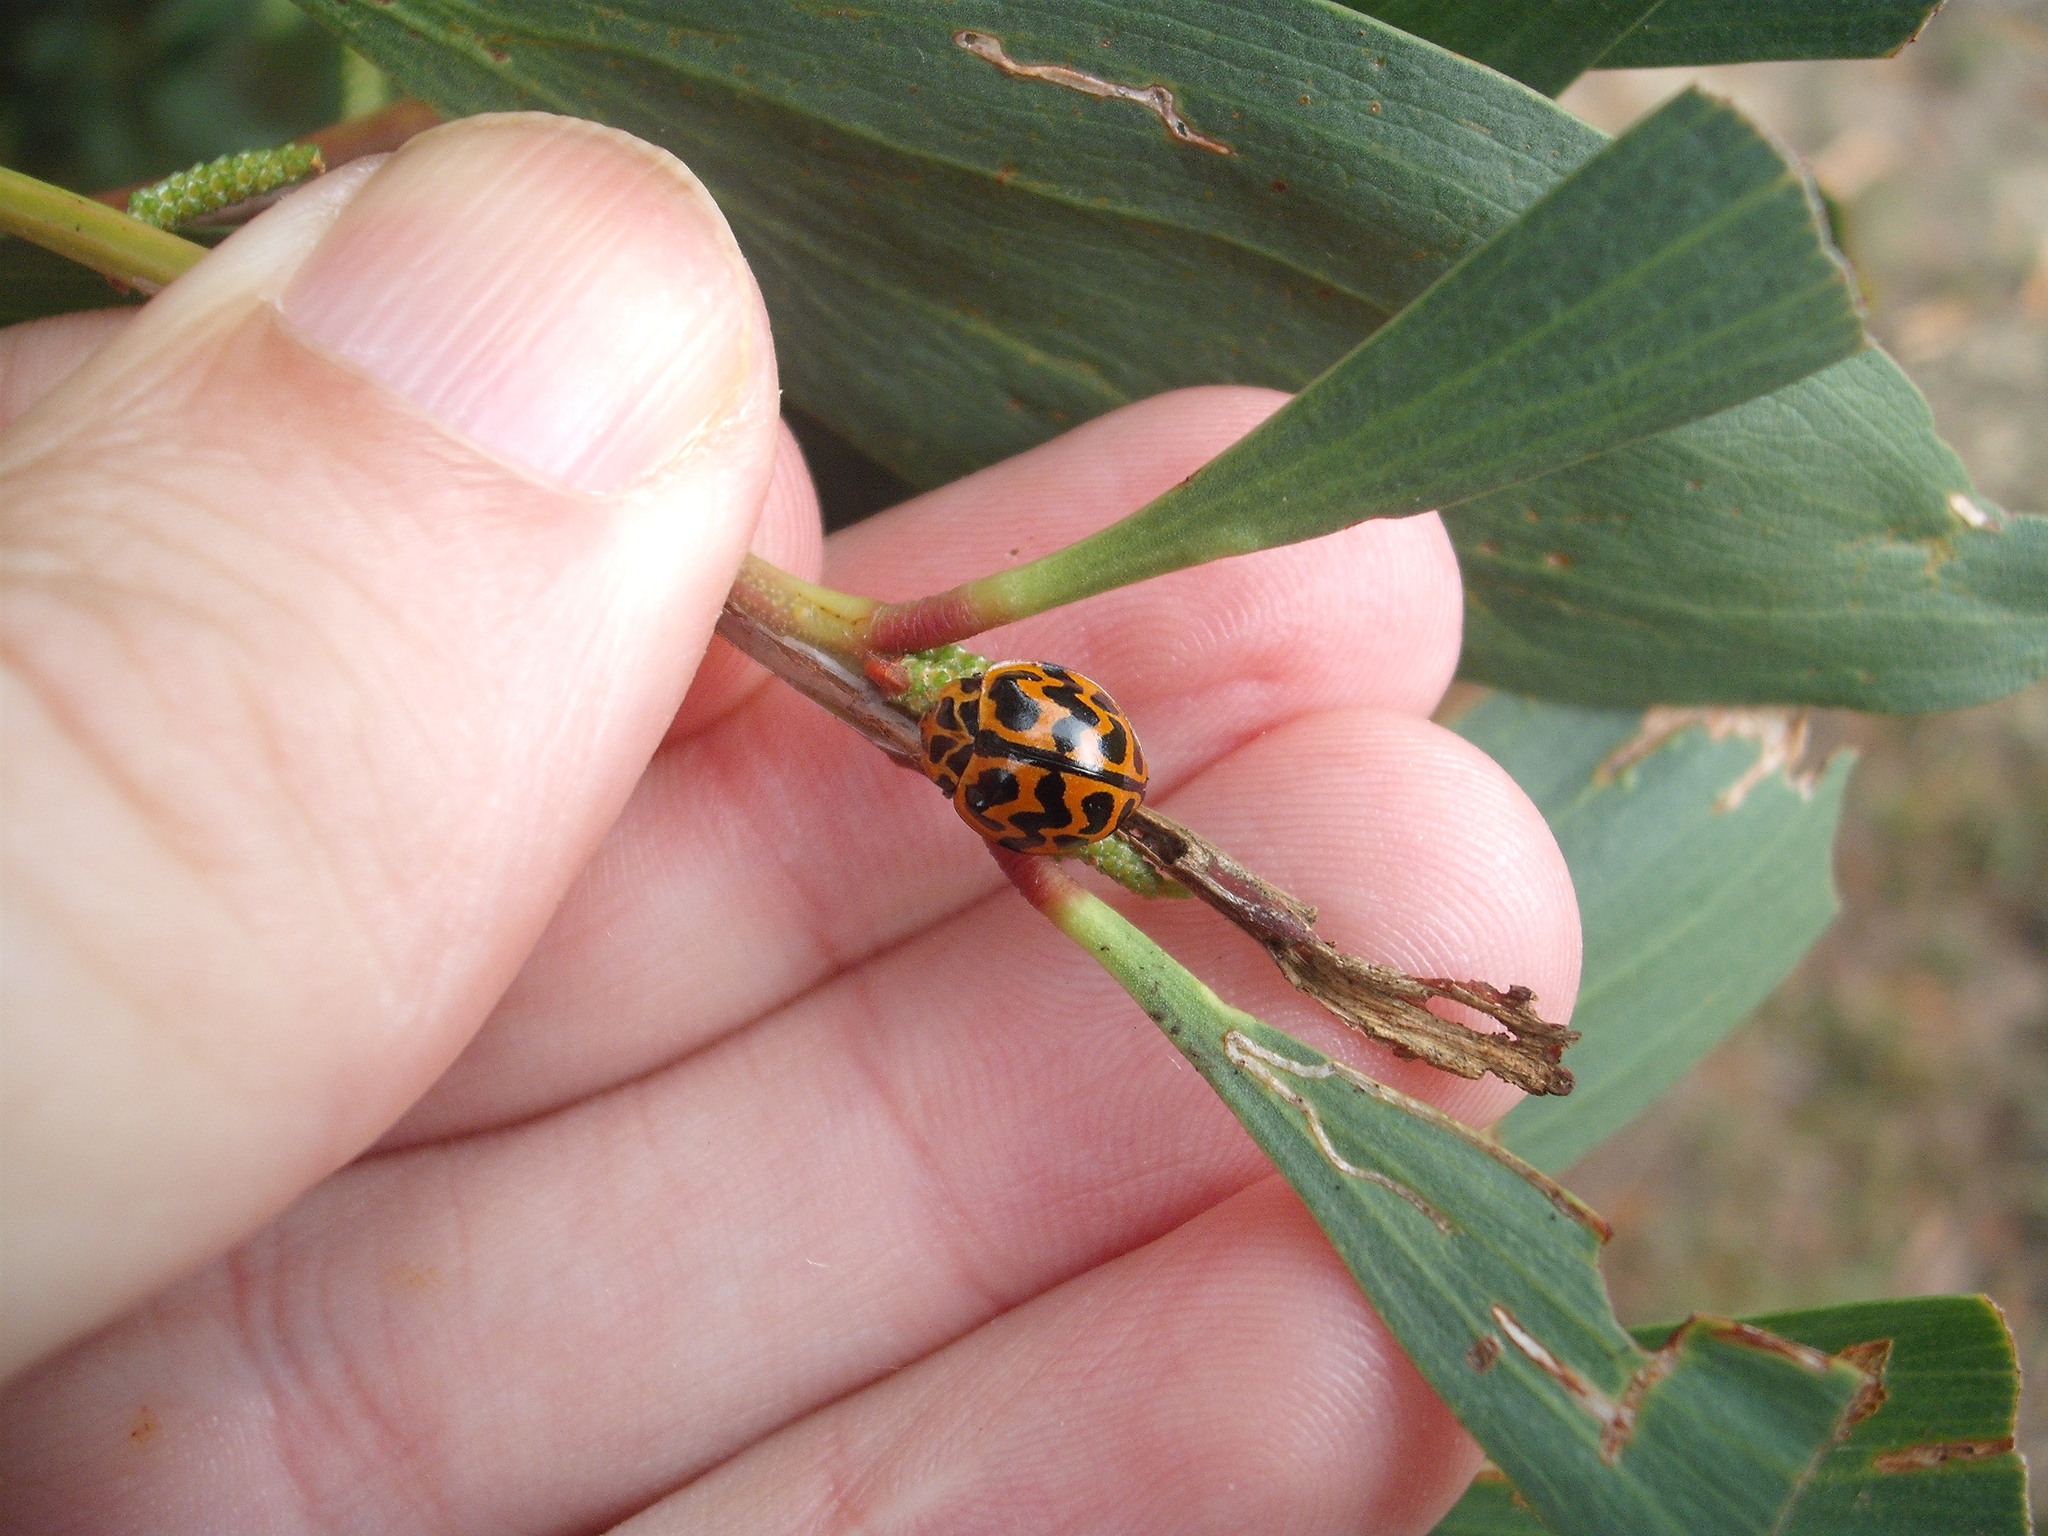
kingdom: Animalia
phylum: Arthropoda
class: Insecta
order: Coleoptera
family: Coccinellidae
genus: Cleobora
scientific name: Cleobora
